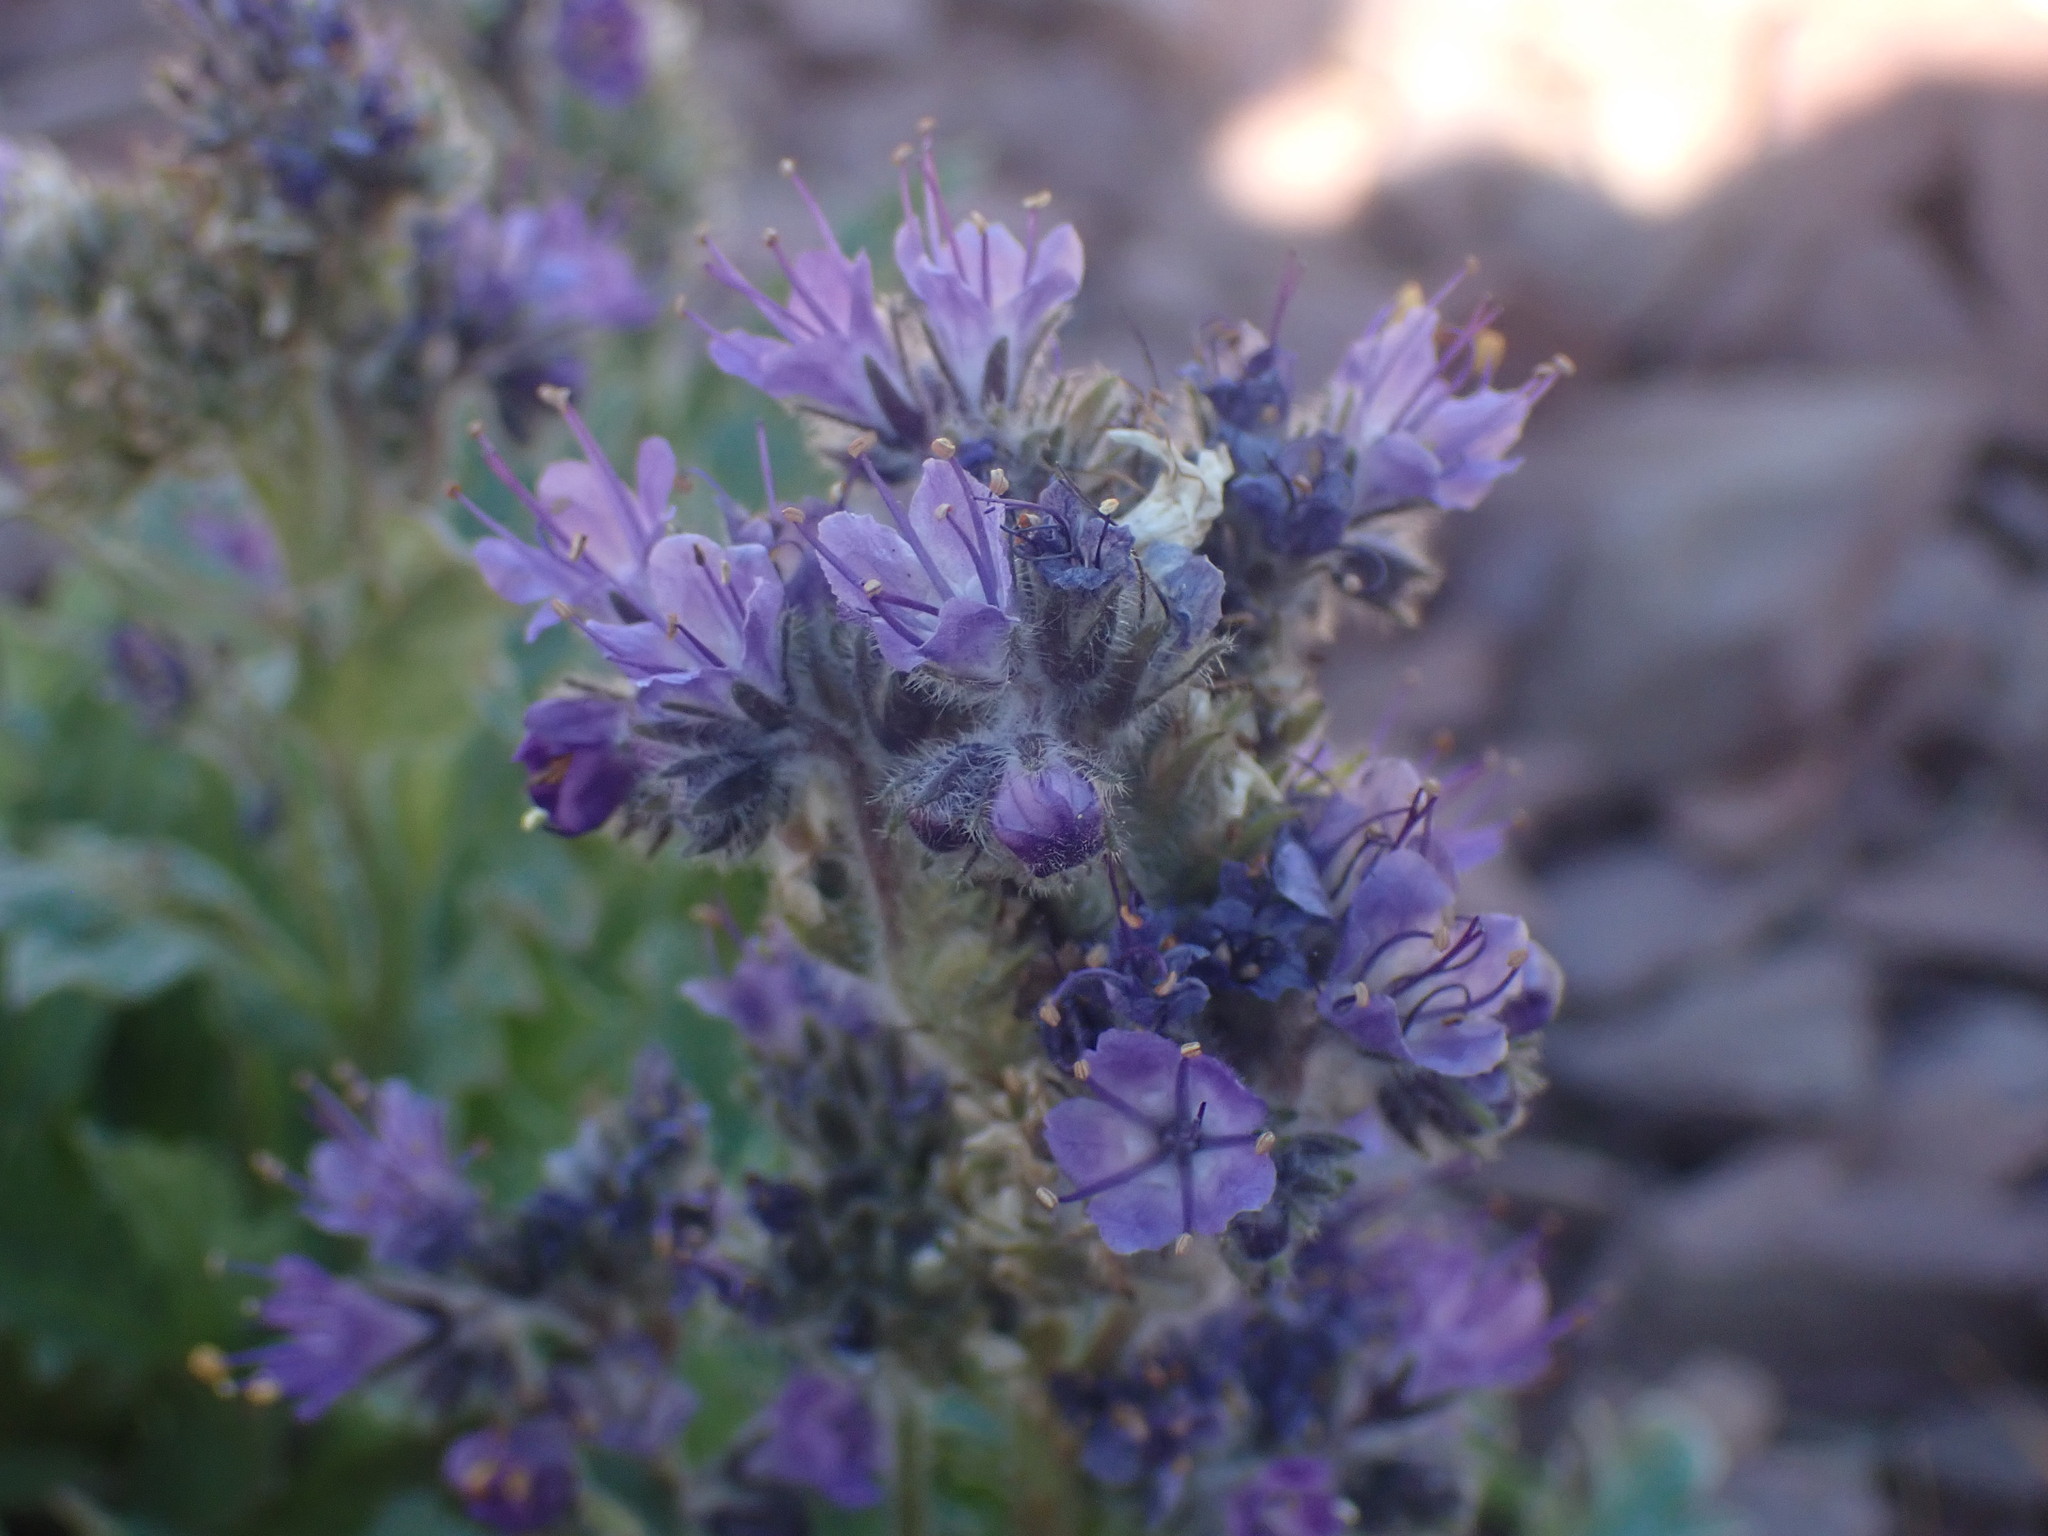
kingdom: Plantae
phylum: Tracheophyta
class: Magnoliopsida
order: Boraginales
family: Hydrophyllaceae
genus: Phacelia
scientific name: Phacelia lyallii
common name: Lyall's phacelia
